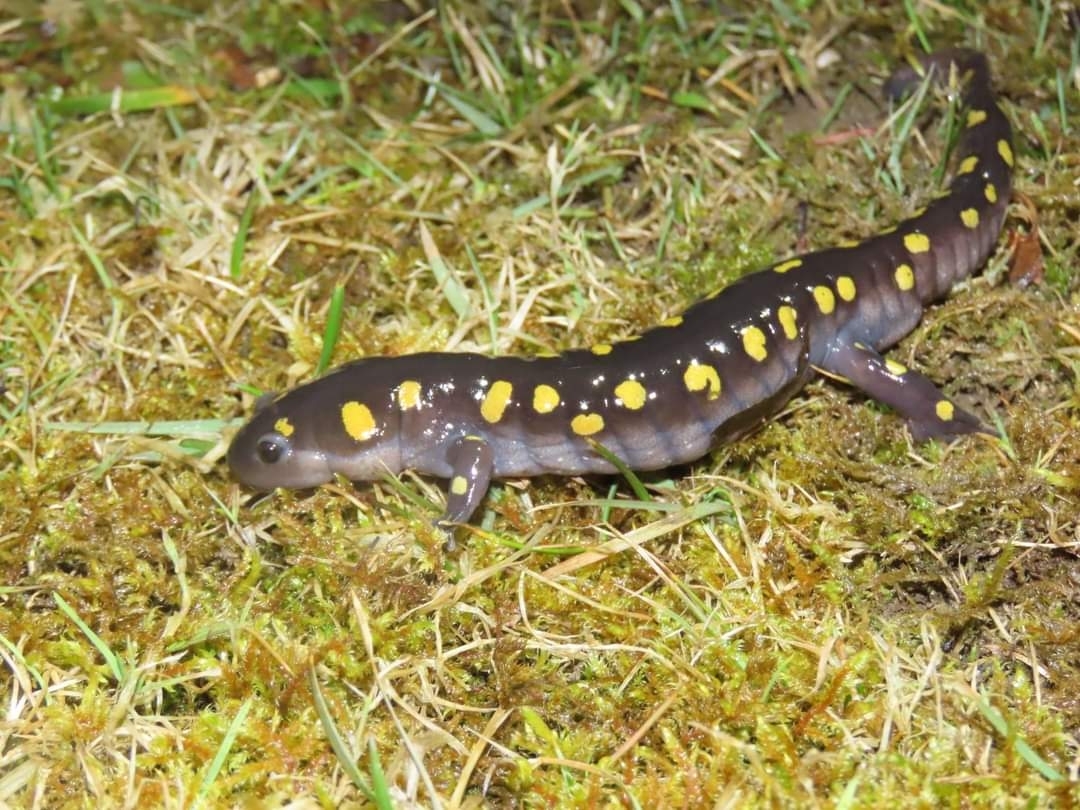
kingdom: Animalia
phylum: Chordata
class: Amphibia
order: Caudata
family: Ambystomatidae
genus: Ambystoma
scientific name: Ambystoma maculatum
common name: Spotted salamander
